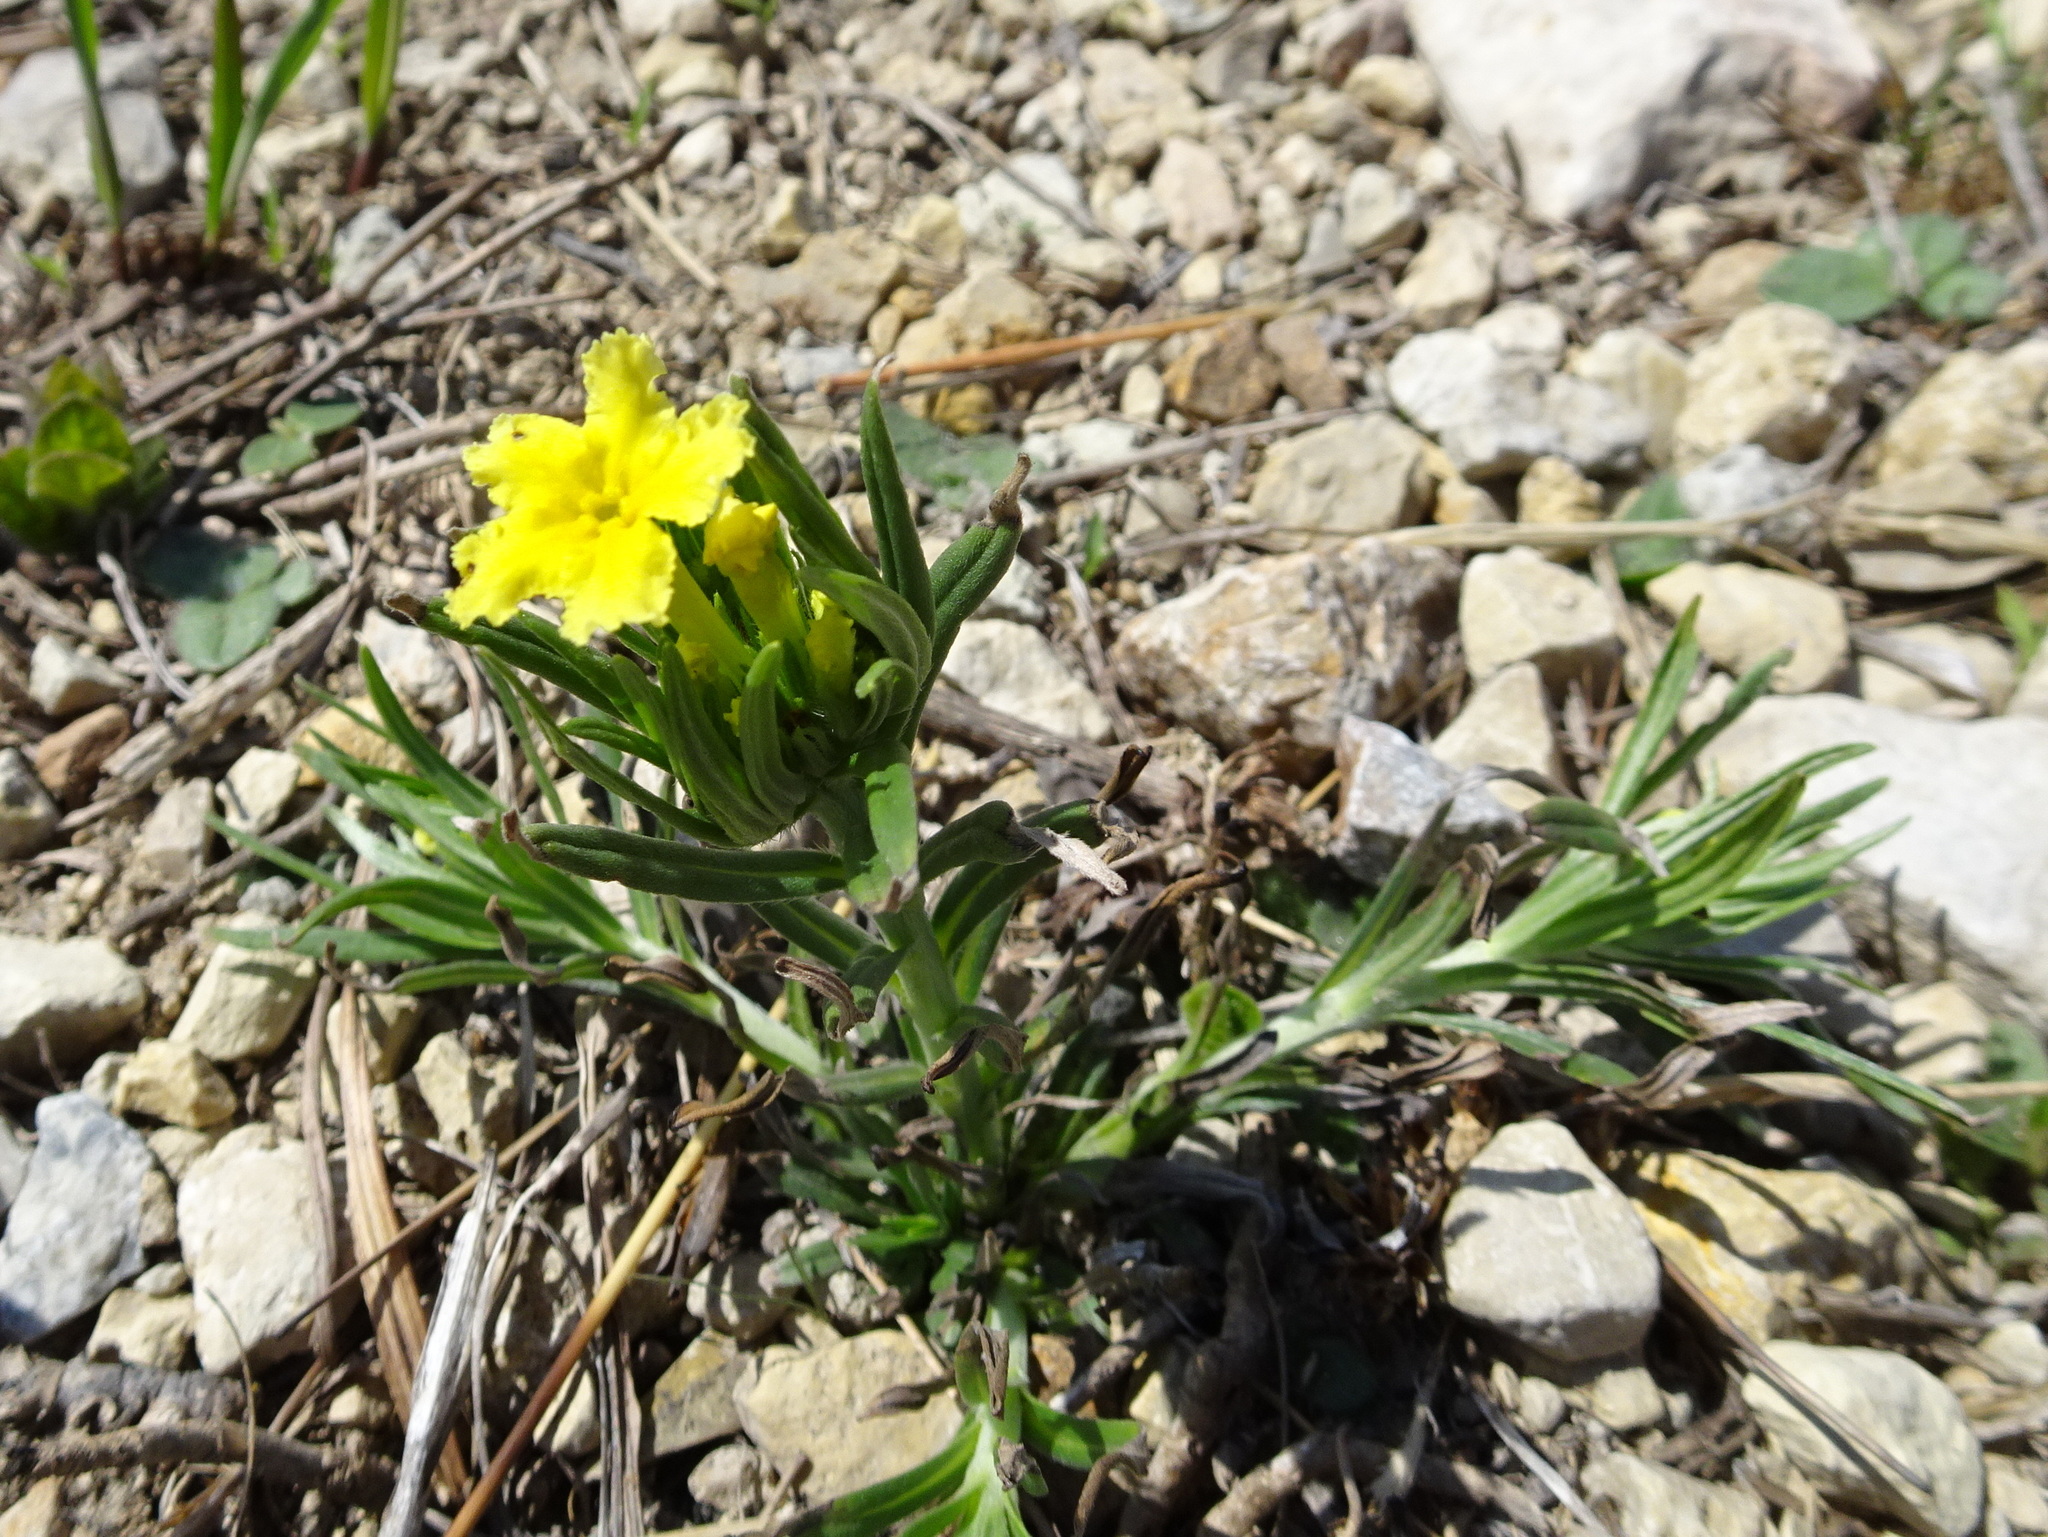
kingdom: Plantae
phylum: Tracheophyta
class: Magnoliopsida
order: Boraginales
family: Boraginaceae
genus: Lithospermum
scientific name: Lithospermum incisum
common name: Fringed gromwell
